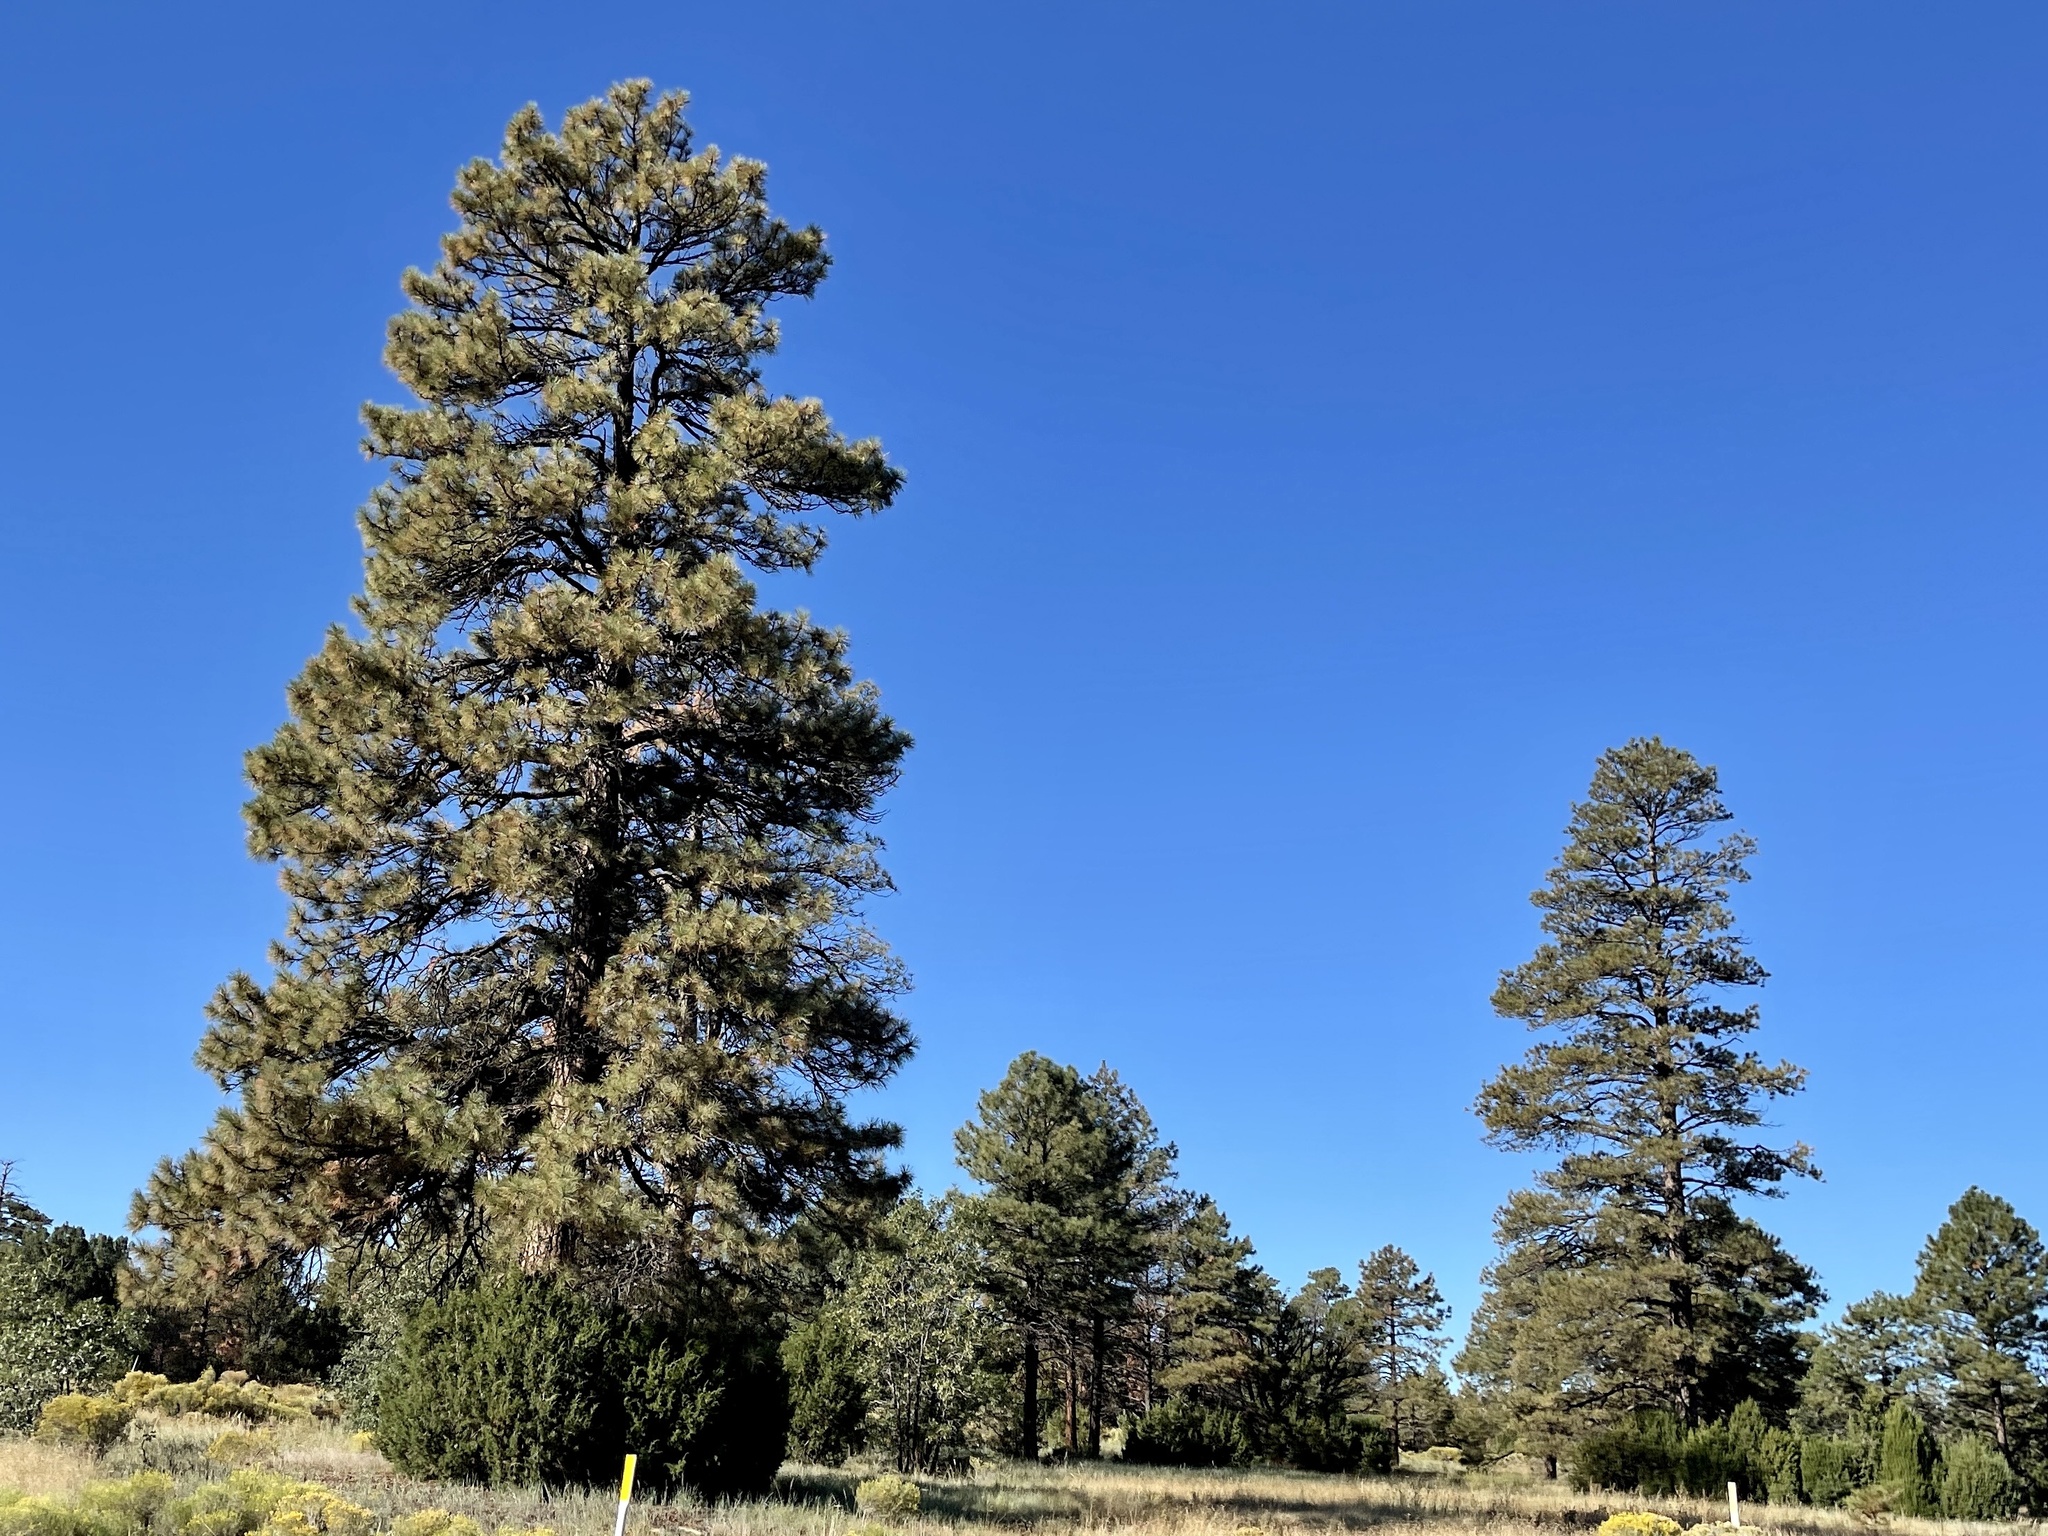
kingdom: Plantae
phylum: Tracheophyta
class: Pinopsida
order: Pinales
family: Pinaceae
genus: Pinus
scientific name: Pinus ponderosa
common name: Western yellow-pine
